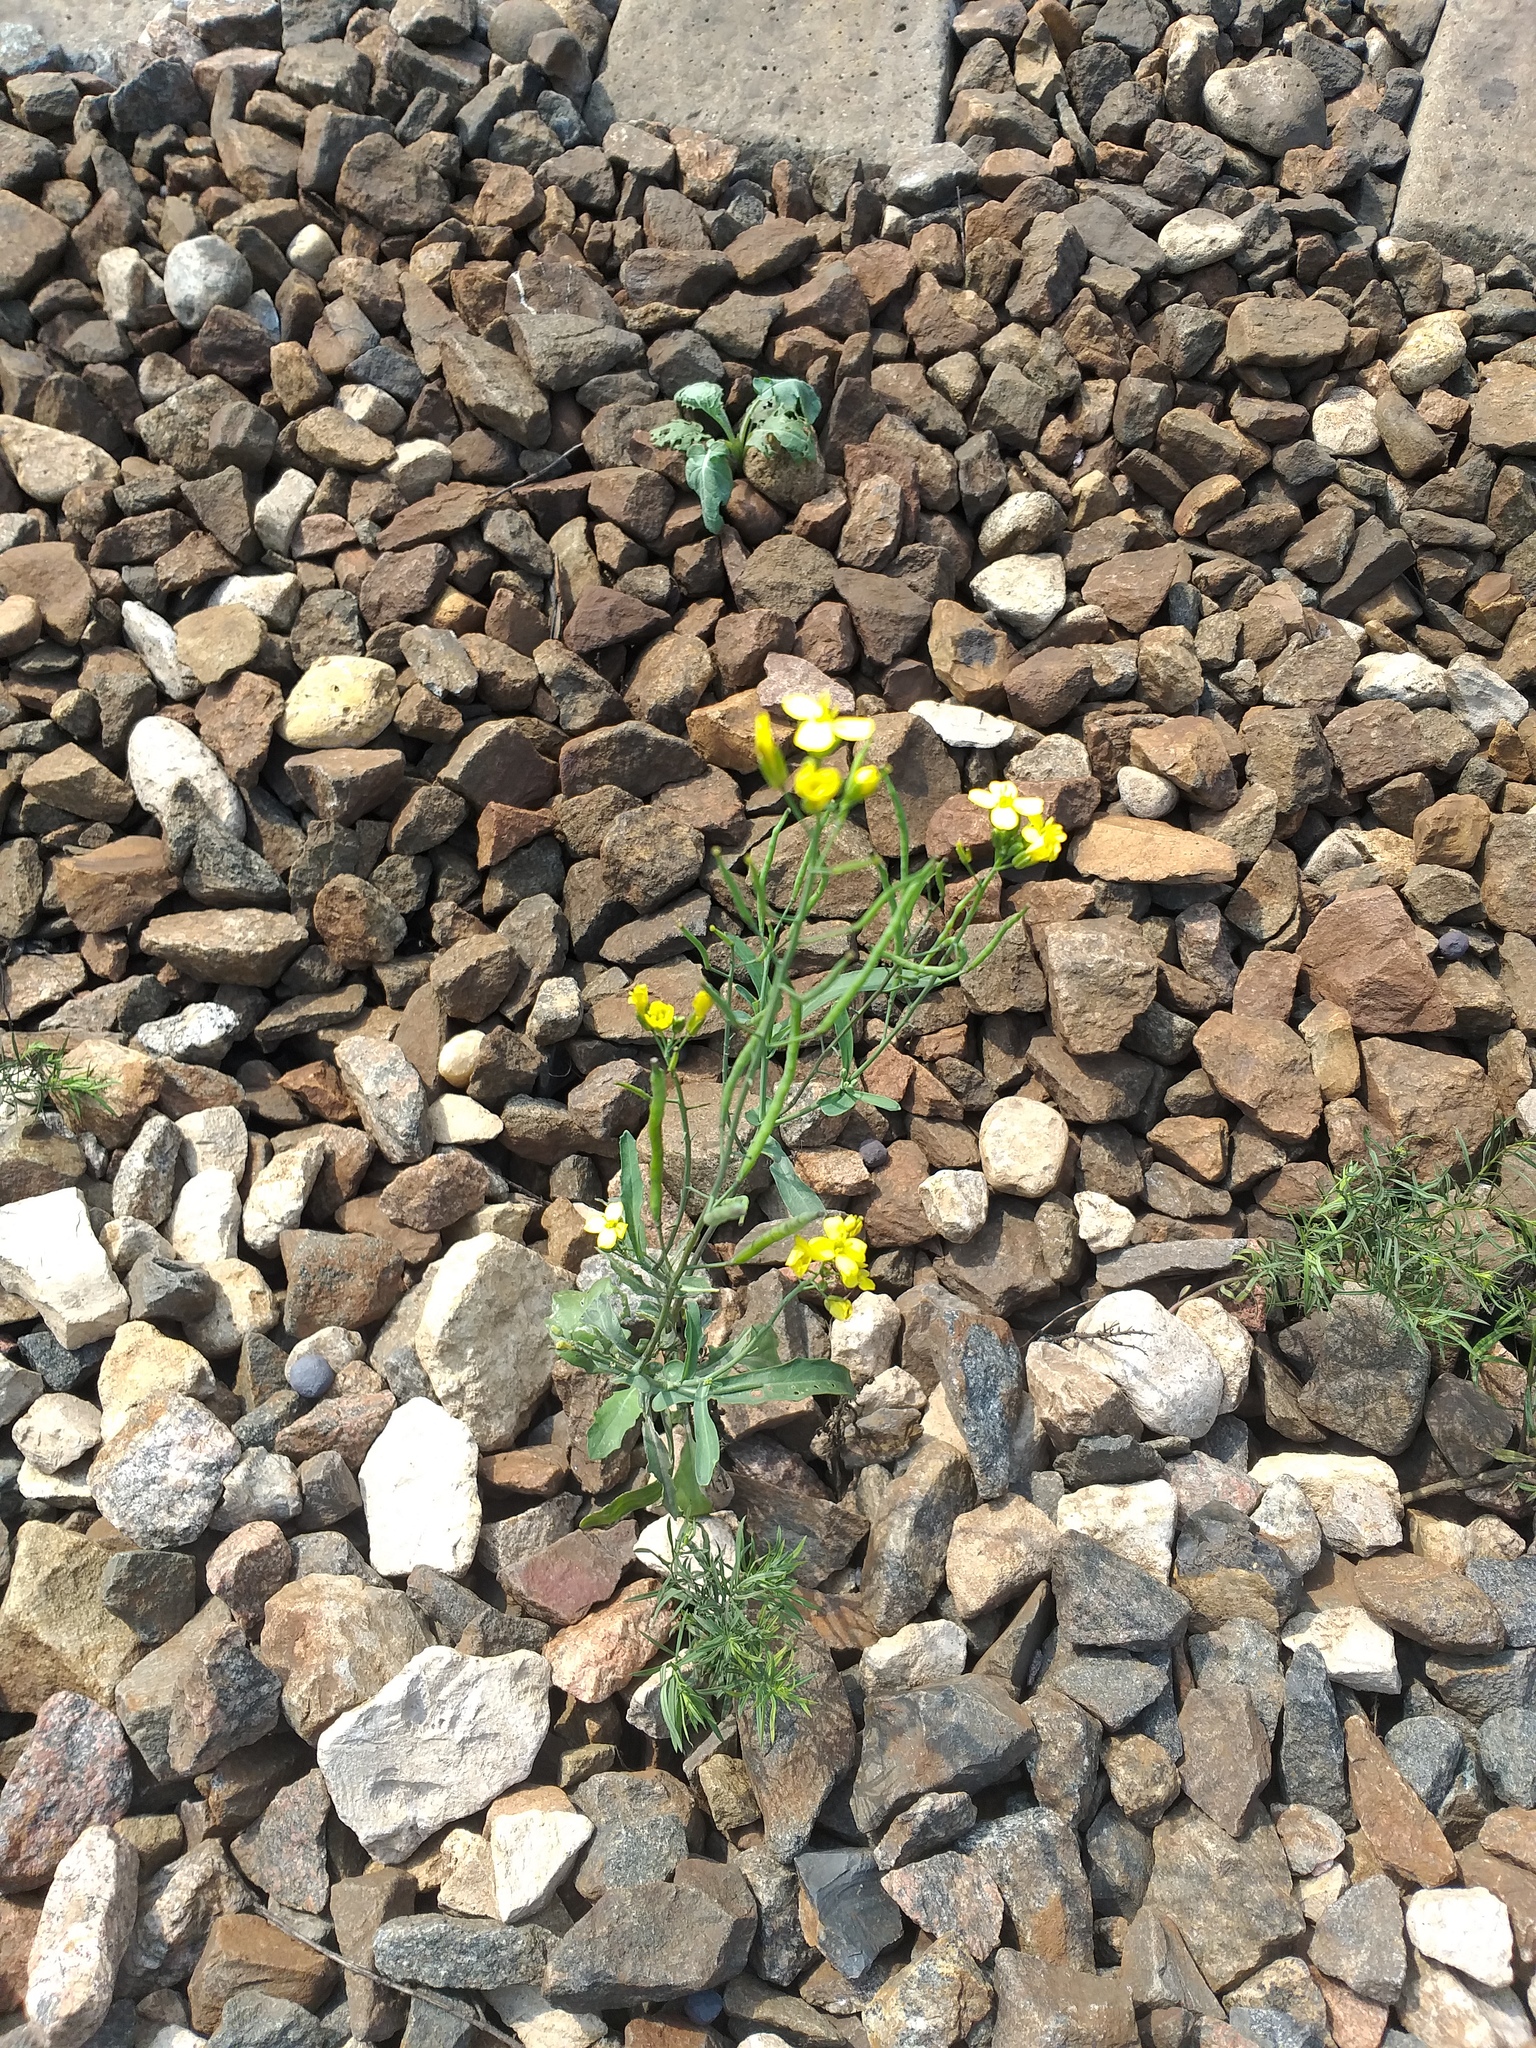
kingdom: Plantae
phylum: Tracheophyta
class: Magnoliopsida
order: Brassicales
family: Brassicaceae
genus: Brassica
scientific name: Brassica napus
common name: Rape
